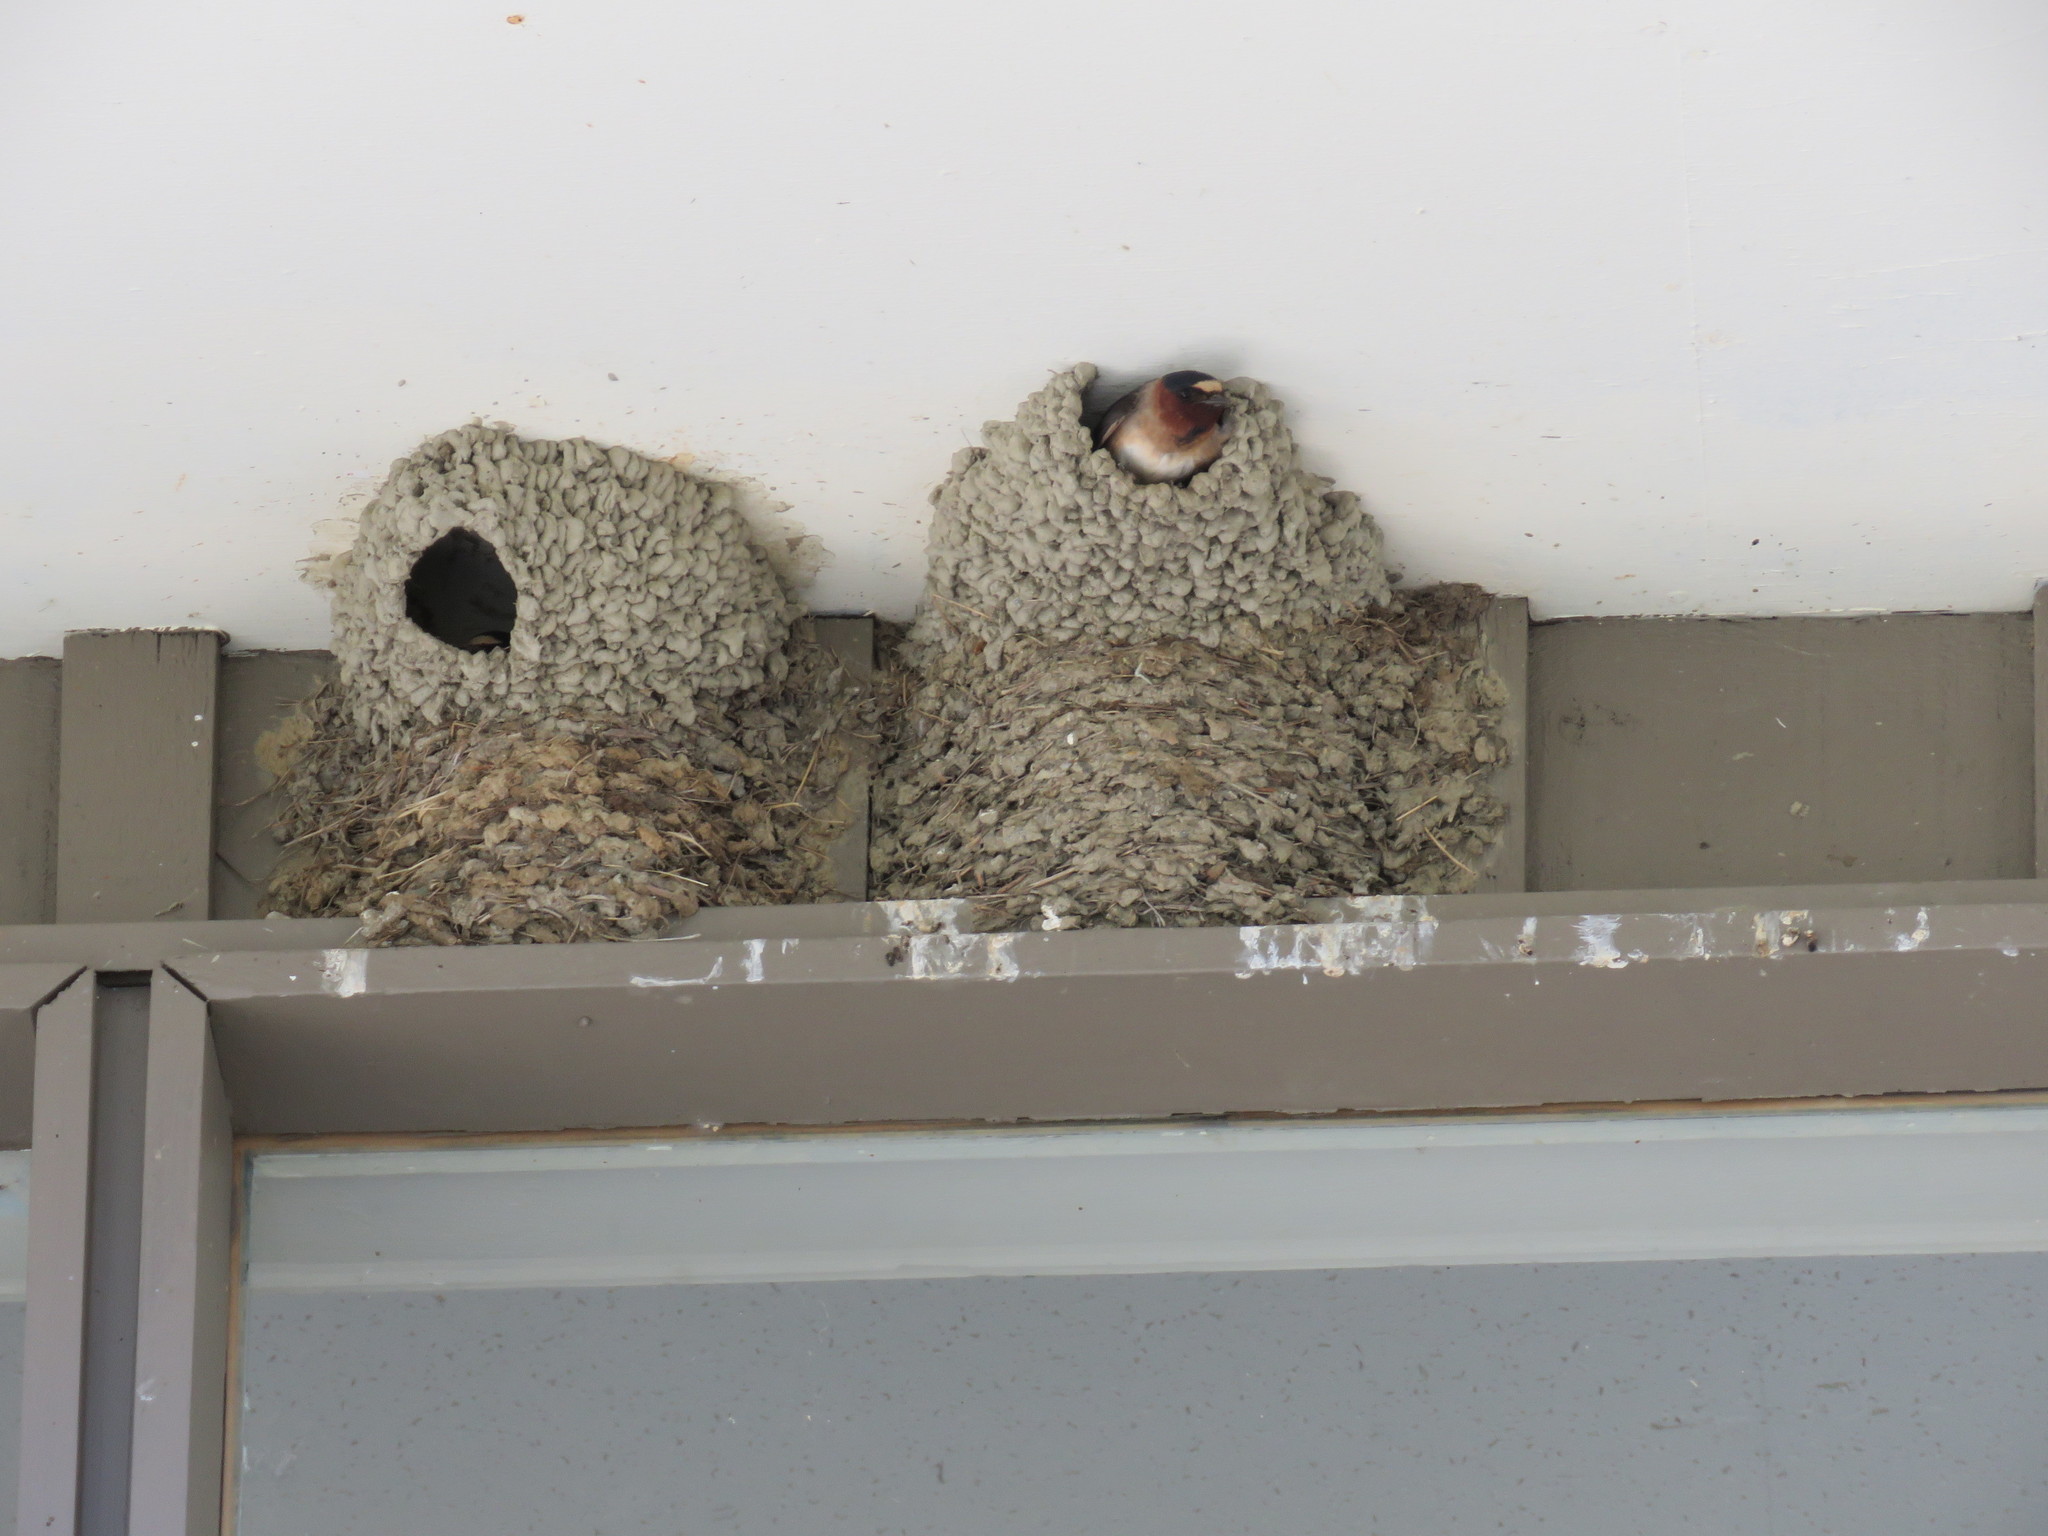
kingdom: Animalia
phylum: Chordata
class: Aves
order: Passeriformes
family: Hirundinidae
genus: Petrochelidon
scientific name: Petrochelidon pyrrhonota
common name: American cliff swallow
